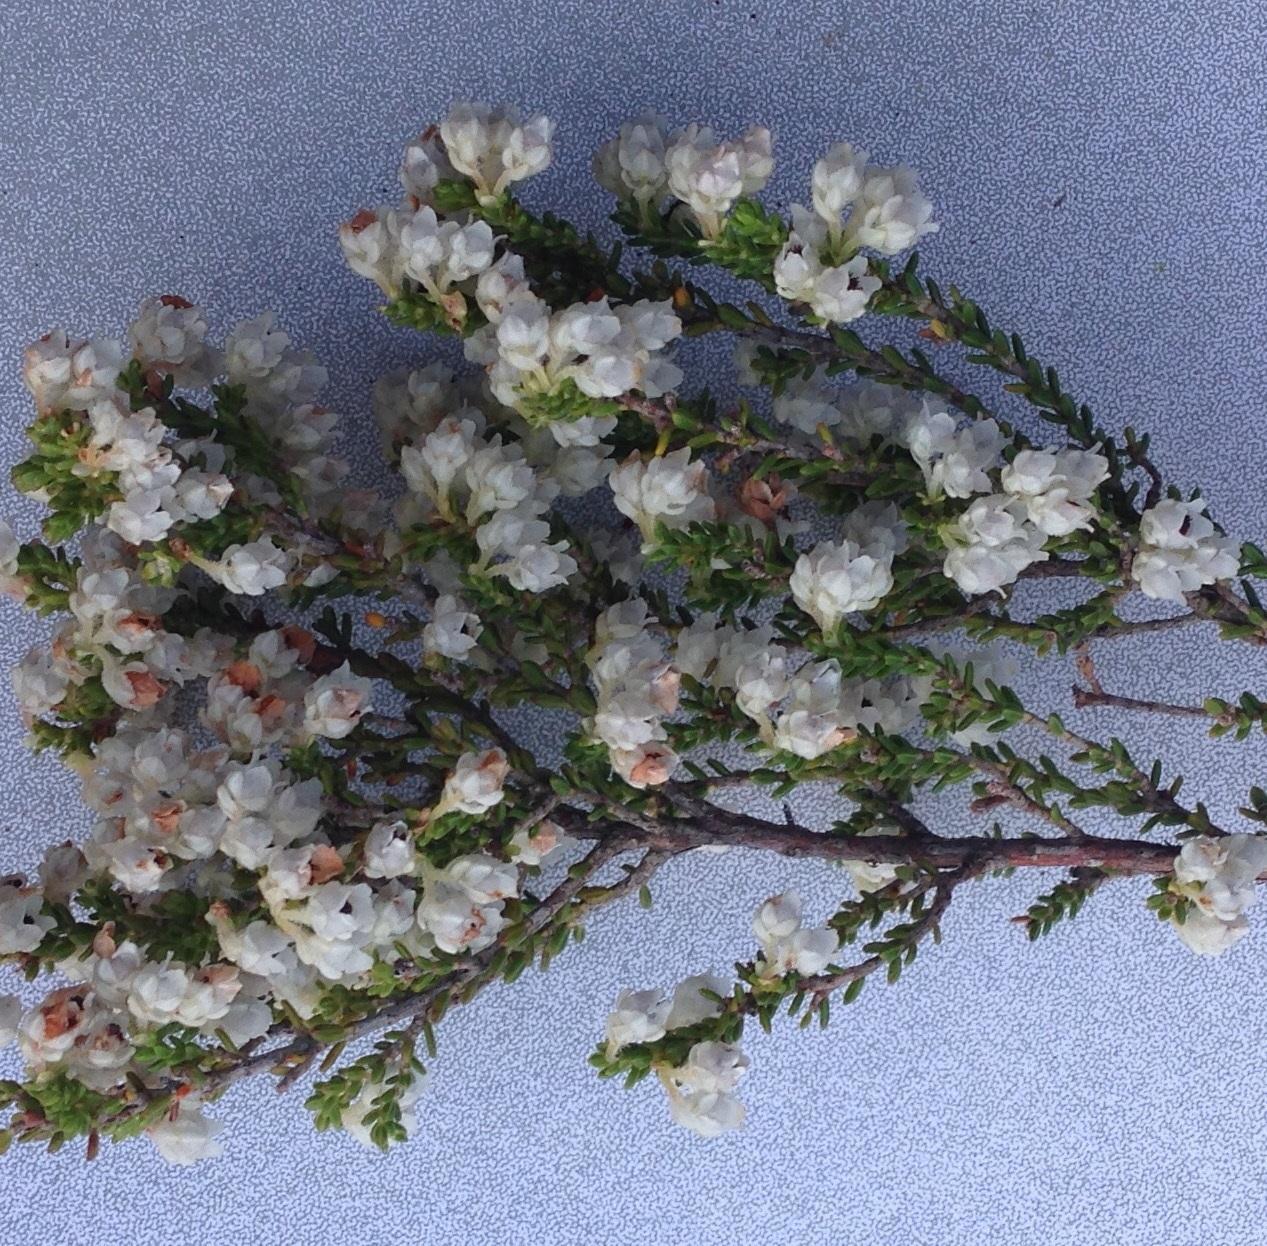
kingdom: Plantae
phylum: Tracheophyta
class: Magnoliopsida
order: Ericales
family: Ericaceae
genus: Erica
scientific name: Erica andreaei
